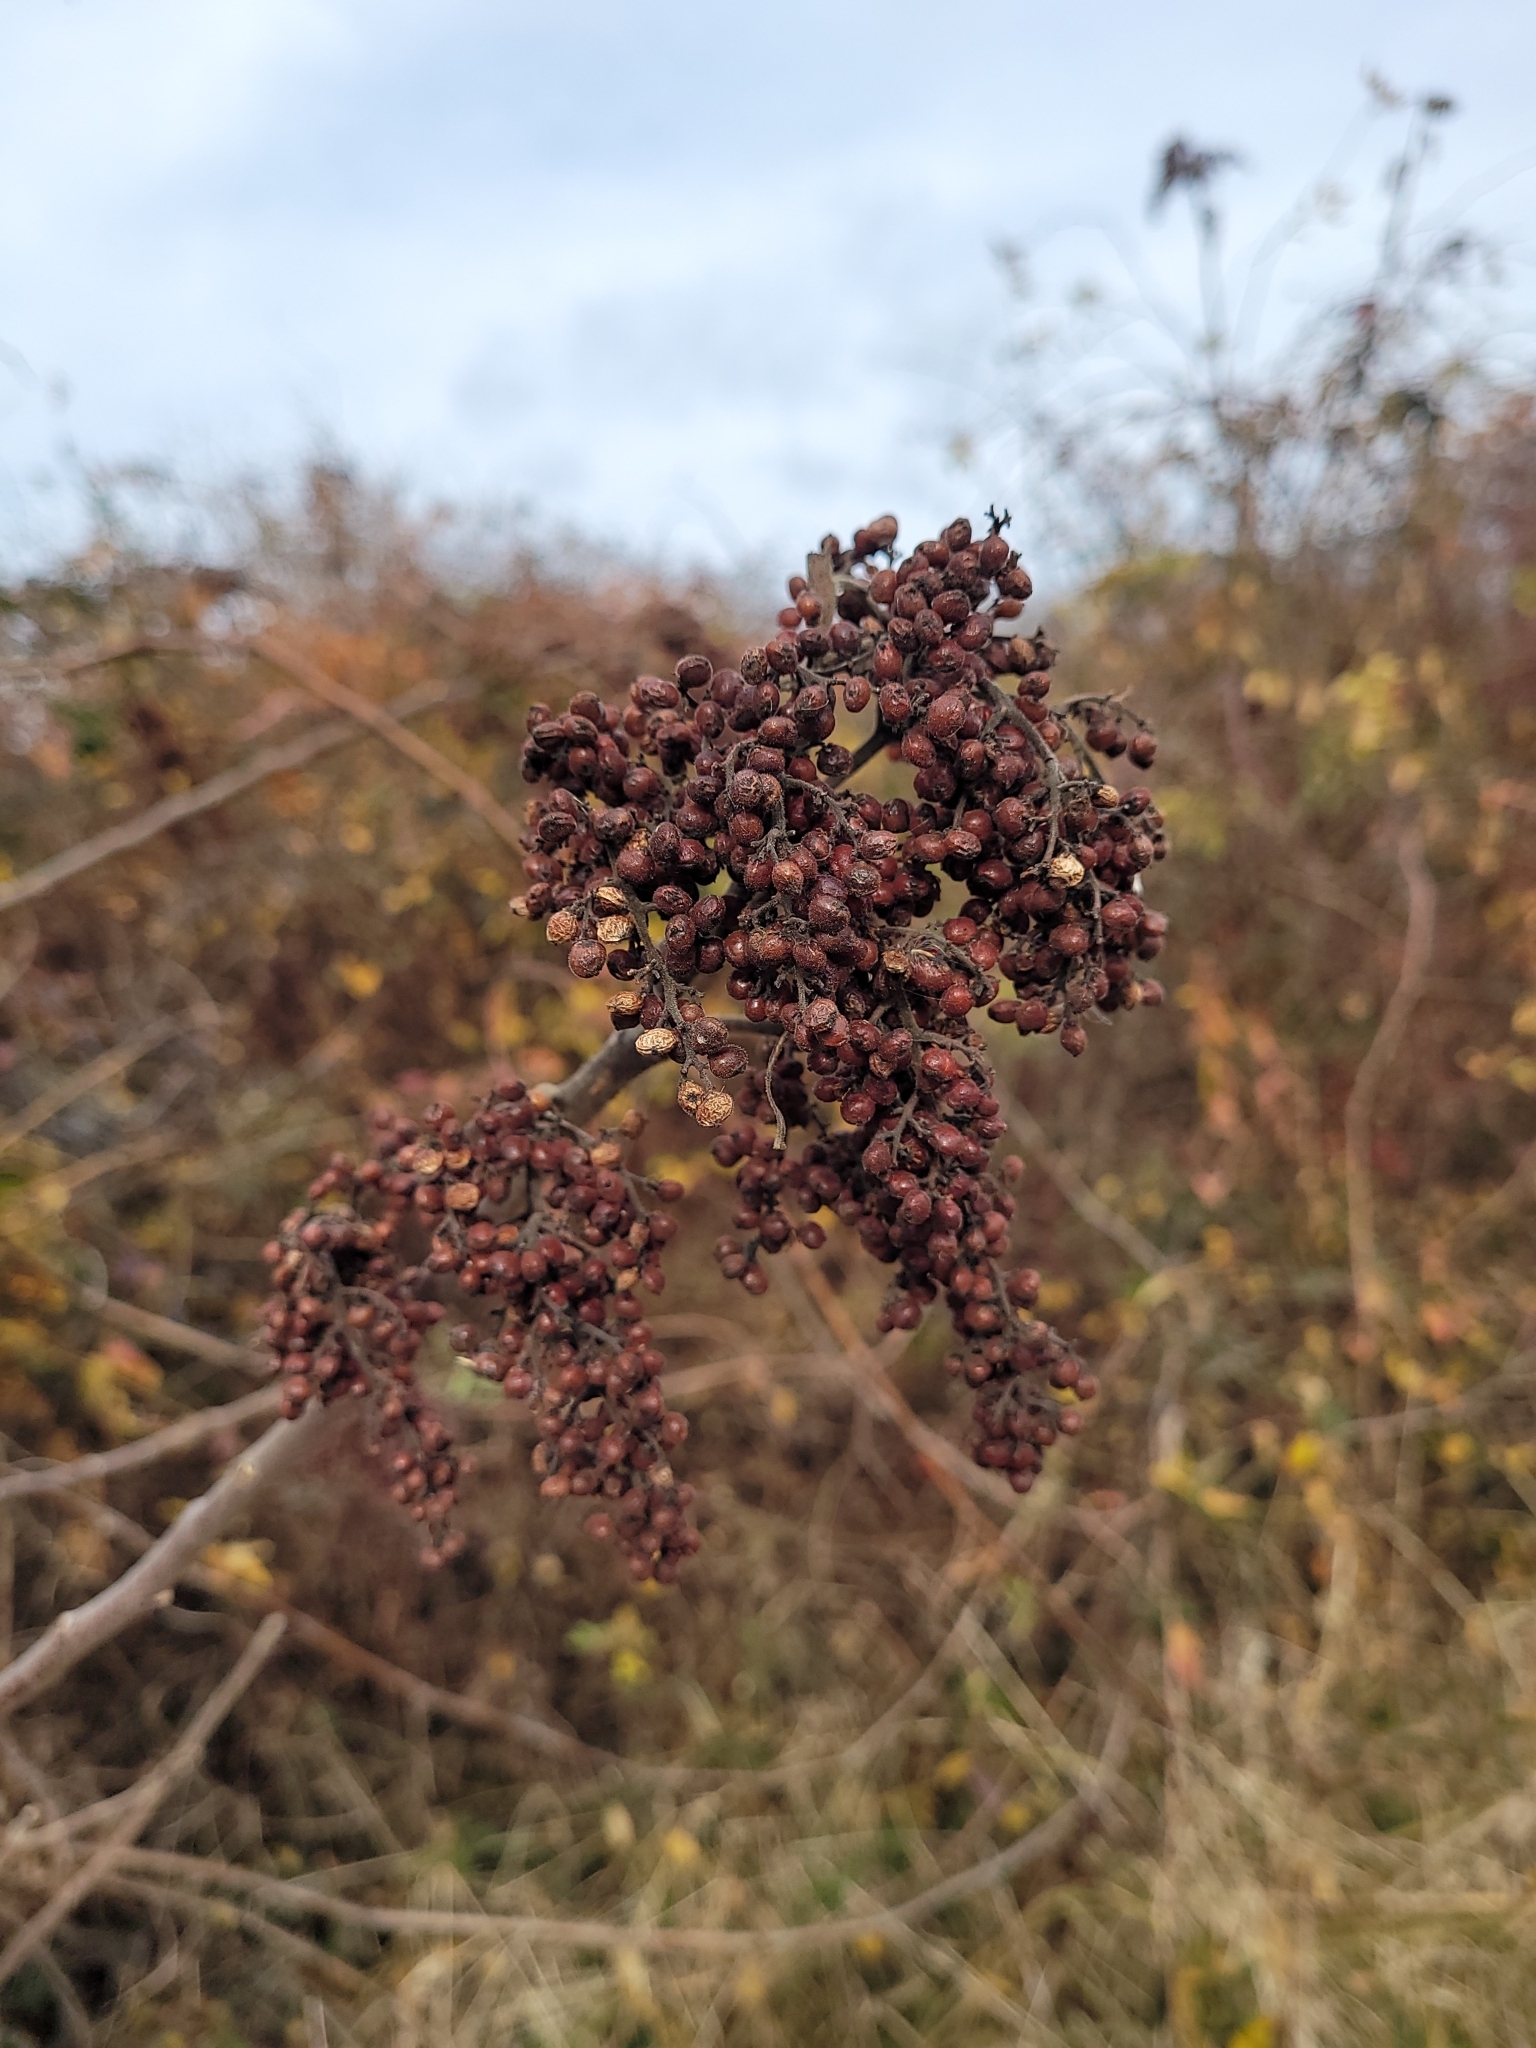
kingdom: Plantae
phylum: Tracheophyta
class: Magnoliopsida
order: Sapindales
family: Anacardiaceae
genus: Rhus
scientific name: Rhus copallina
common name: Shining sumac
